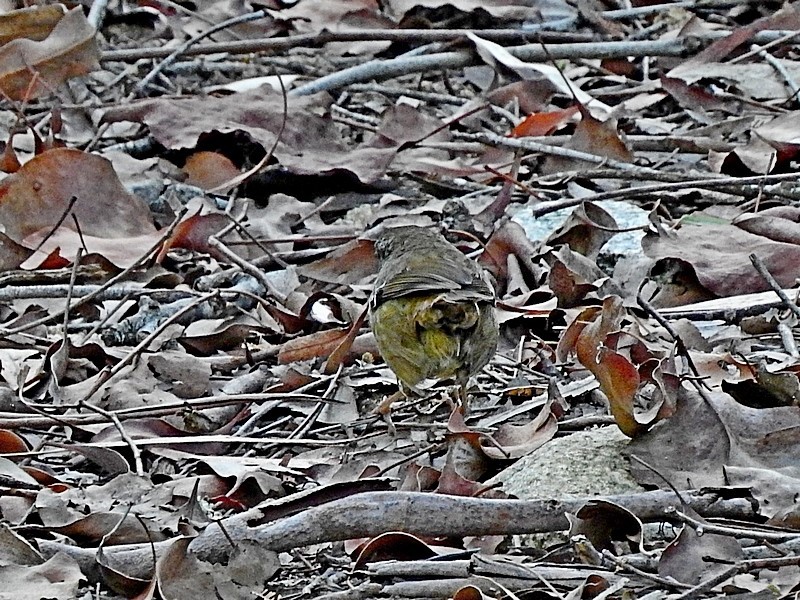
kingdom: Animalia
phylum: Chordata
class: Aves
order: Passeriformes
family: Acanthizidae
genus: Sericornis
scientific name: Sericornis frontalis
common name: White-browed scrubwren
